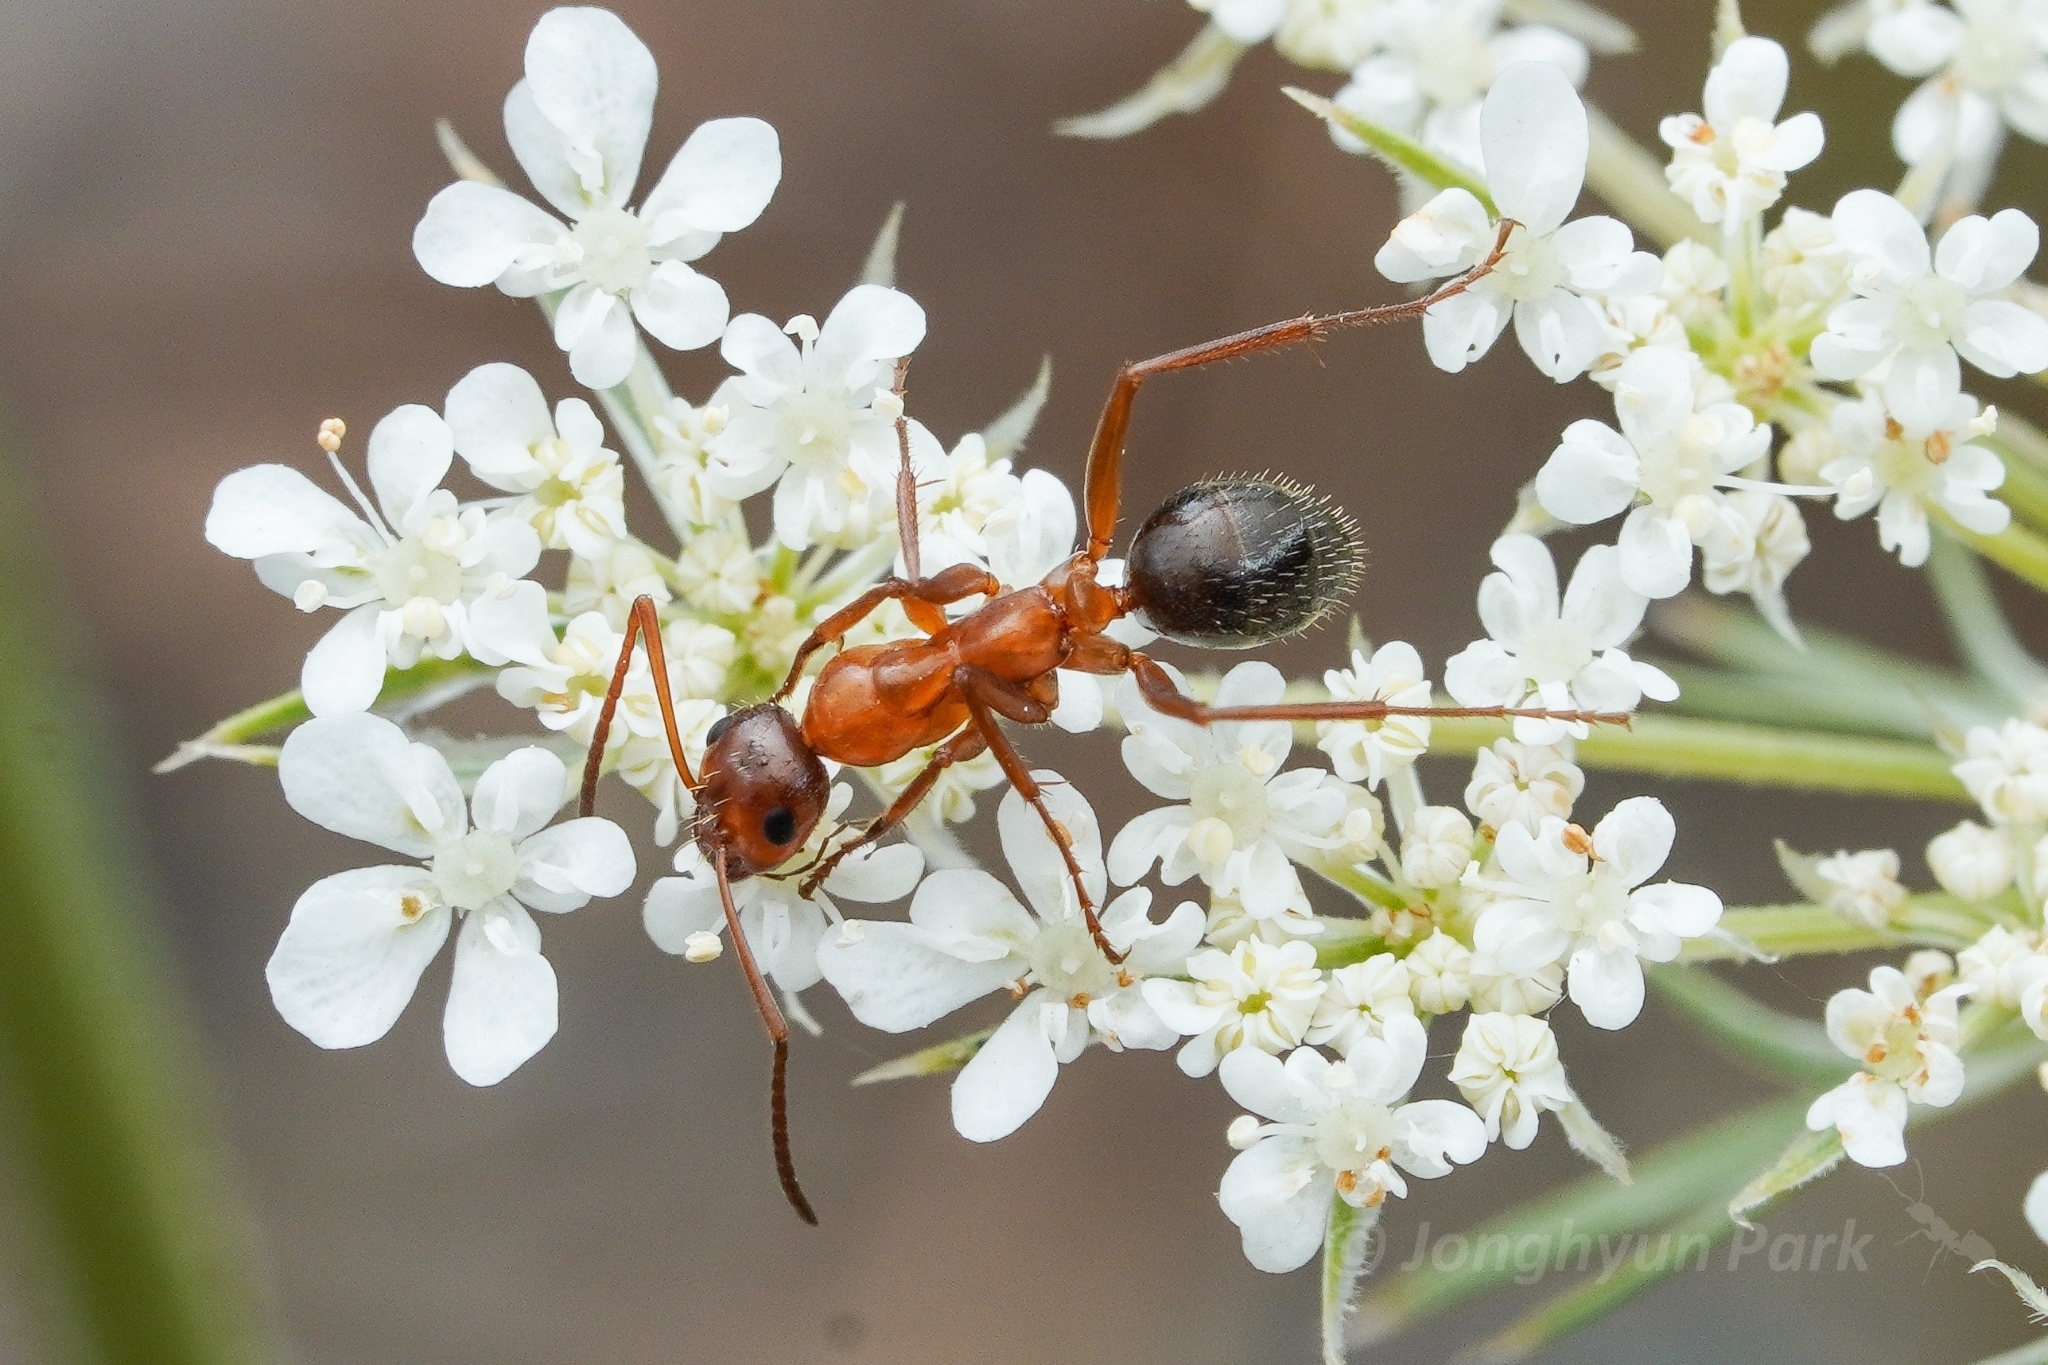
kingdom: Animalia
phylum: Arthropoda
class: Insecta
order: Hymenoptera
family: Formicidae
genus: Formica
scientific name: Formica incerta
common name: Uncertain field ant
